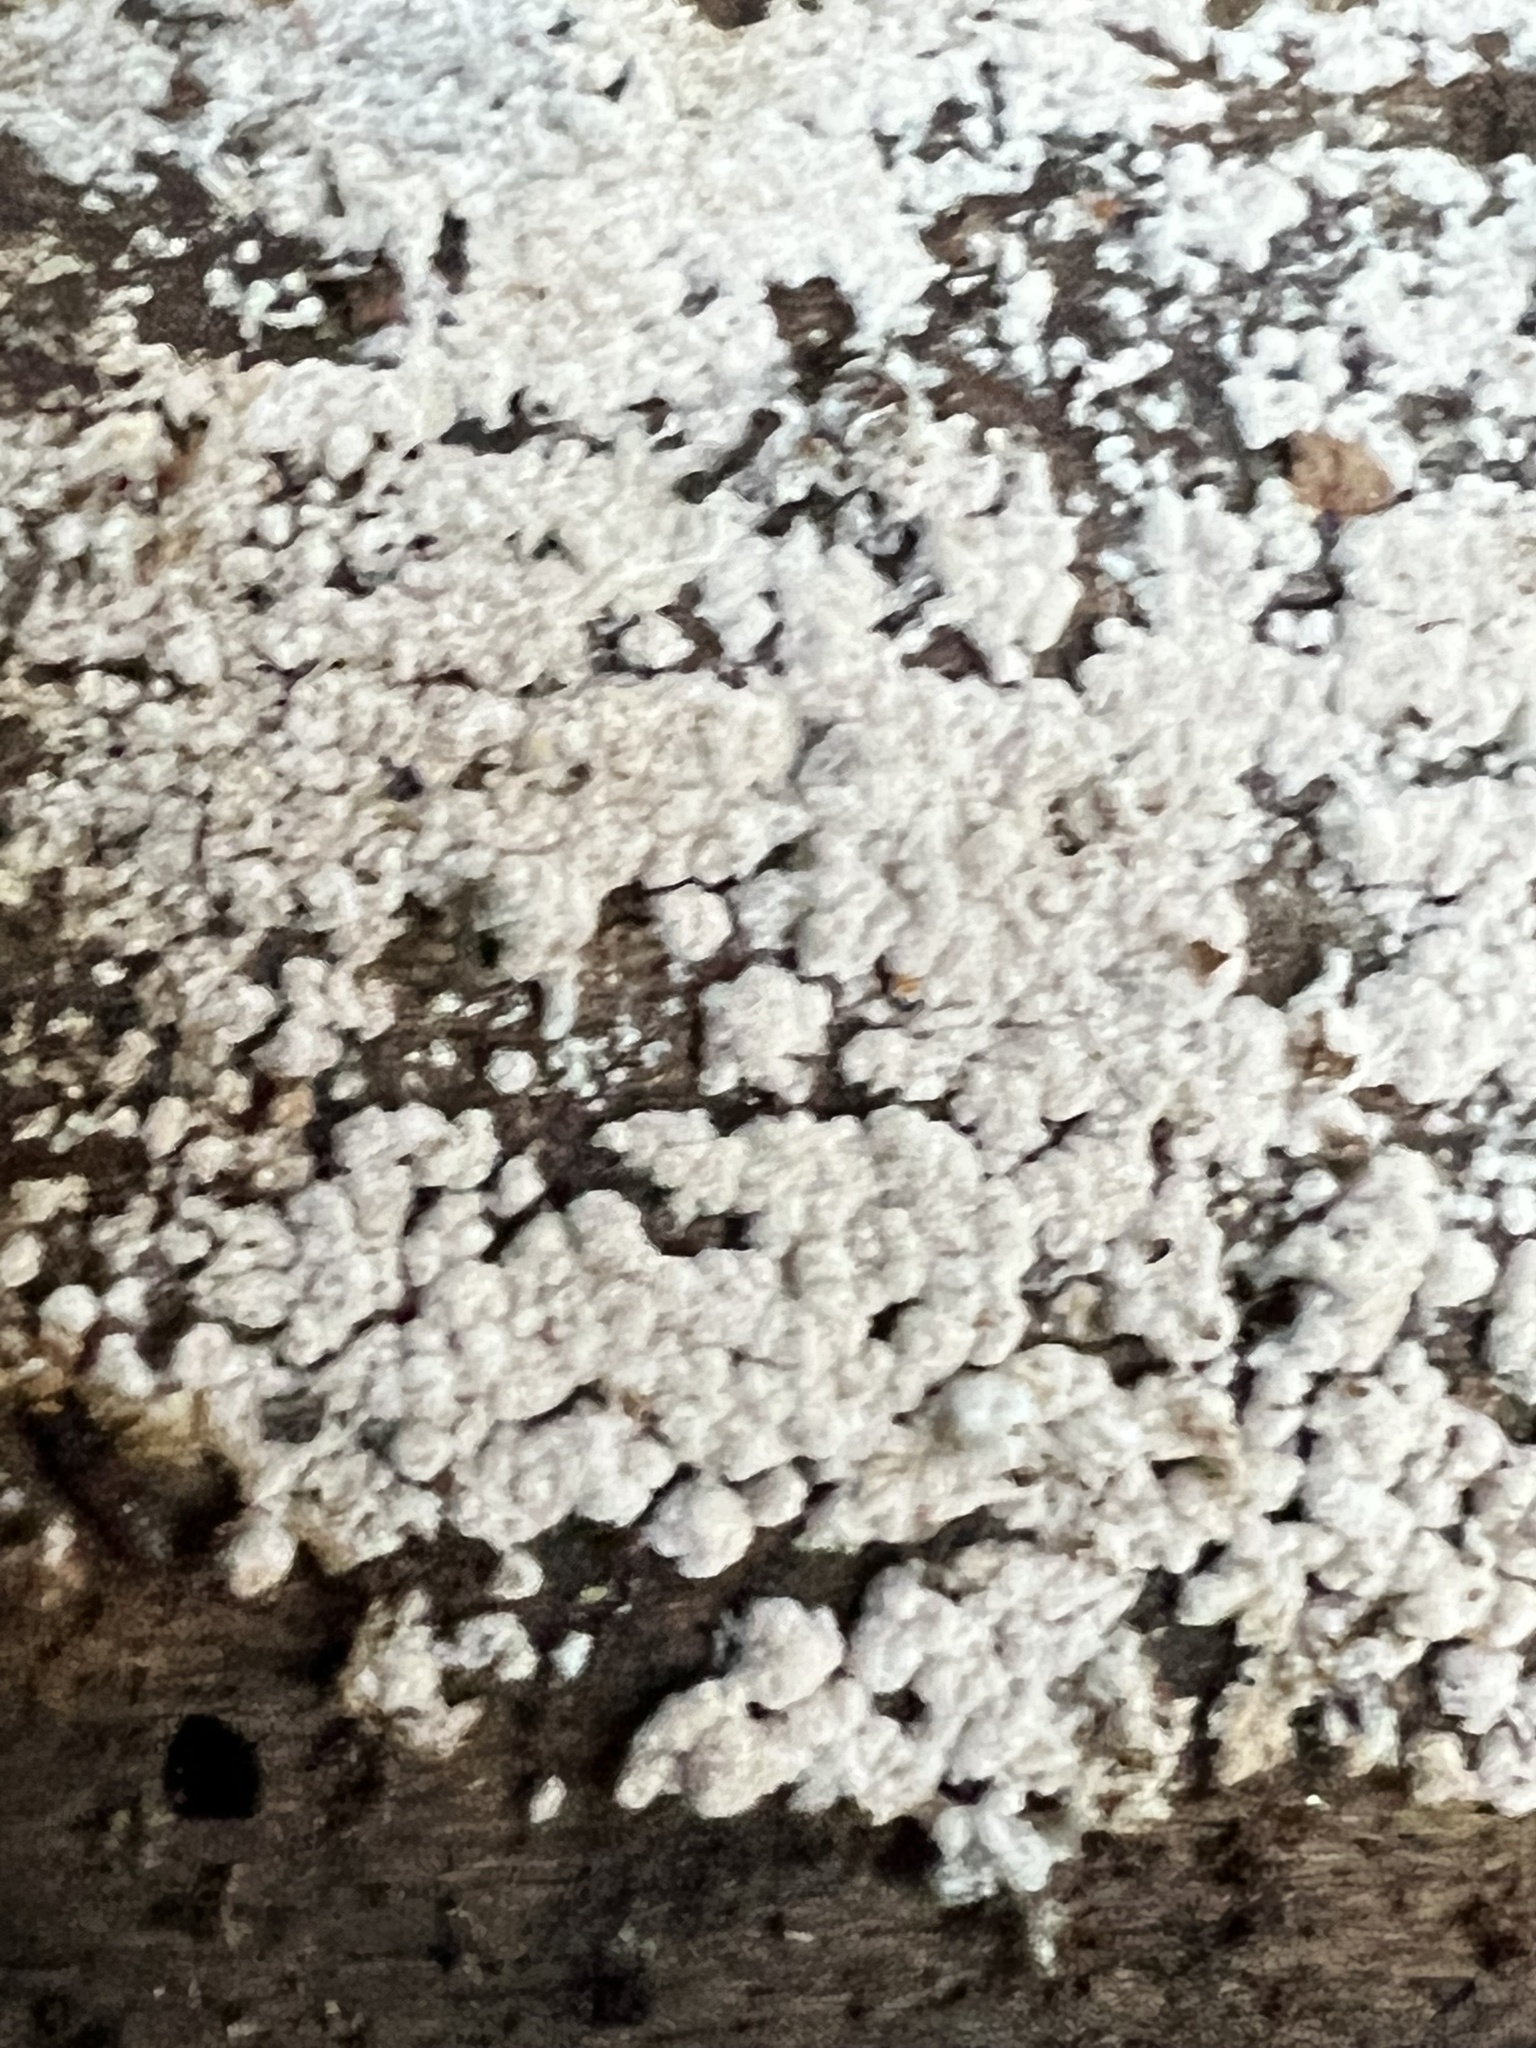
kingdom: Fungi
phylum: Basidiomycota
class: Agaricomycetes
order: Russulales
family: Stereaceae
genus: Xylobolus
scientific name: Xylobolus frustulatus
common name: Ceramic parchment
